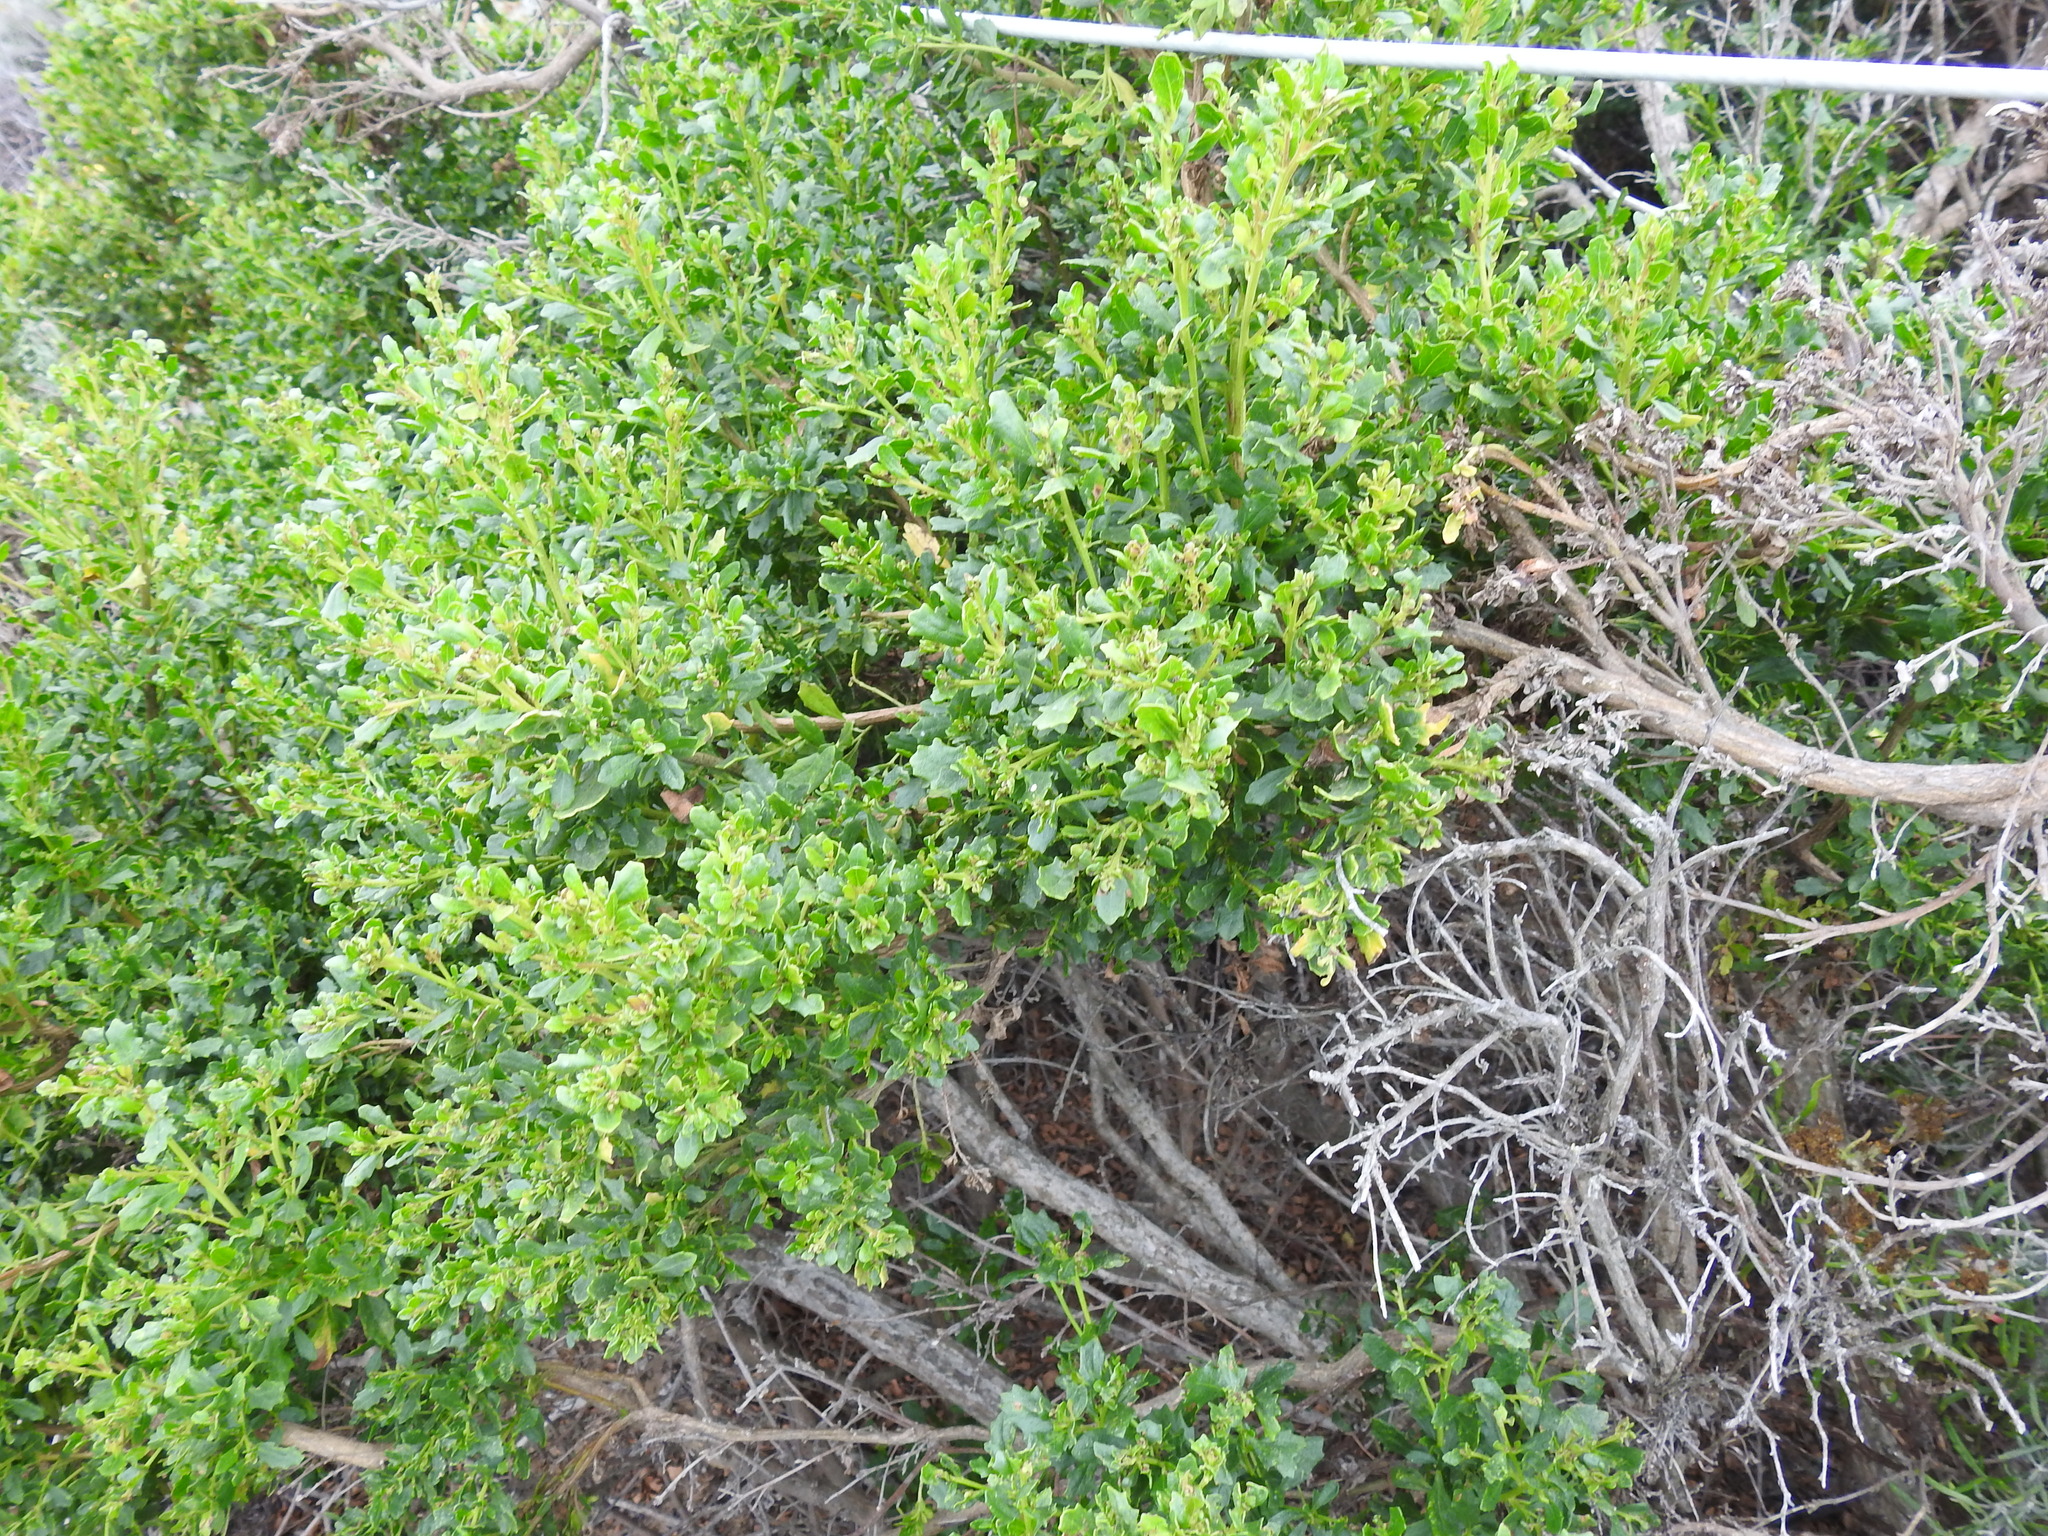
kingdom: Plantae
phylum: Tracheophyta
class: Magnoliopsida
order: Asterales
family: Asteraceae
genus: Baccharis
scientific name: Baccharis pilularis
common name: Coyotebrush
